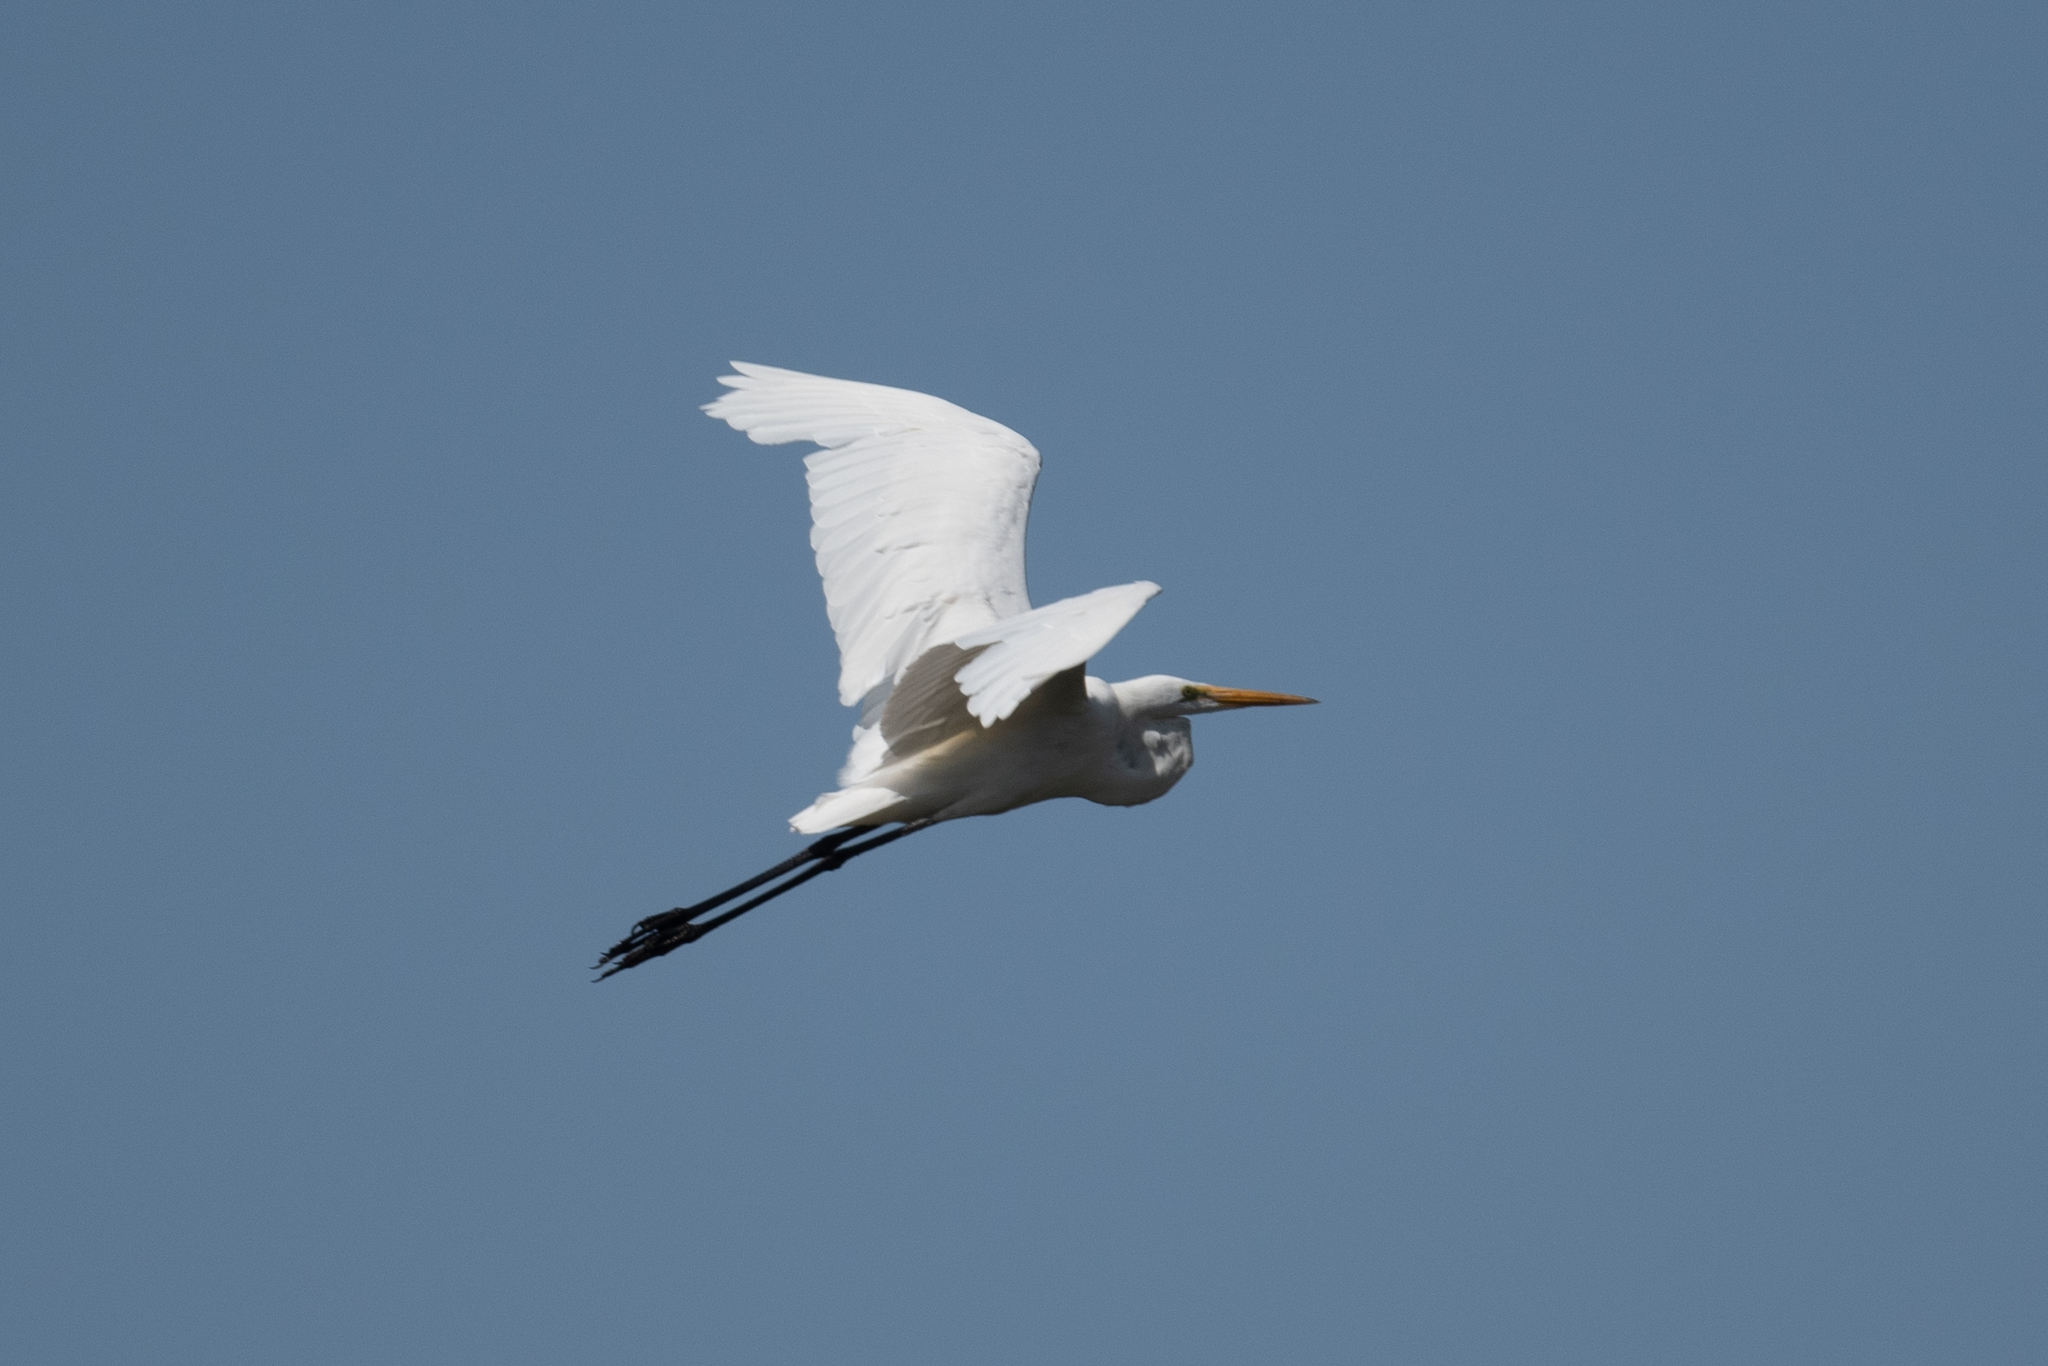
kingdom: Animalia
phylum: Chordata
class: Aves
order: Pelecaniformes
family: Ardeidae
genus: Ardea
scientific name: Ardea alba
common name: Great egret
